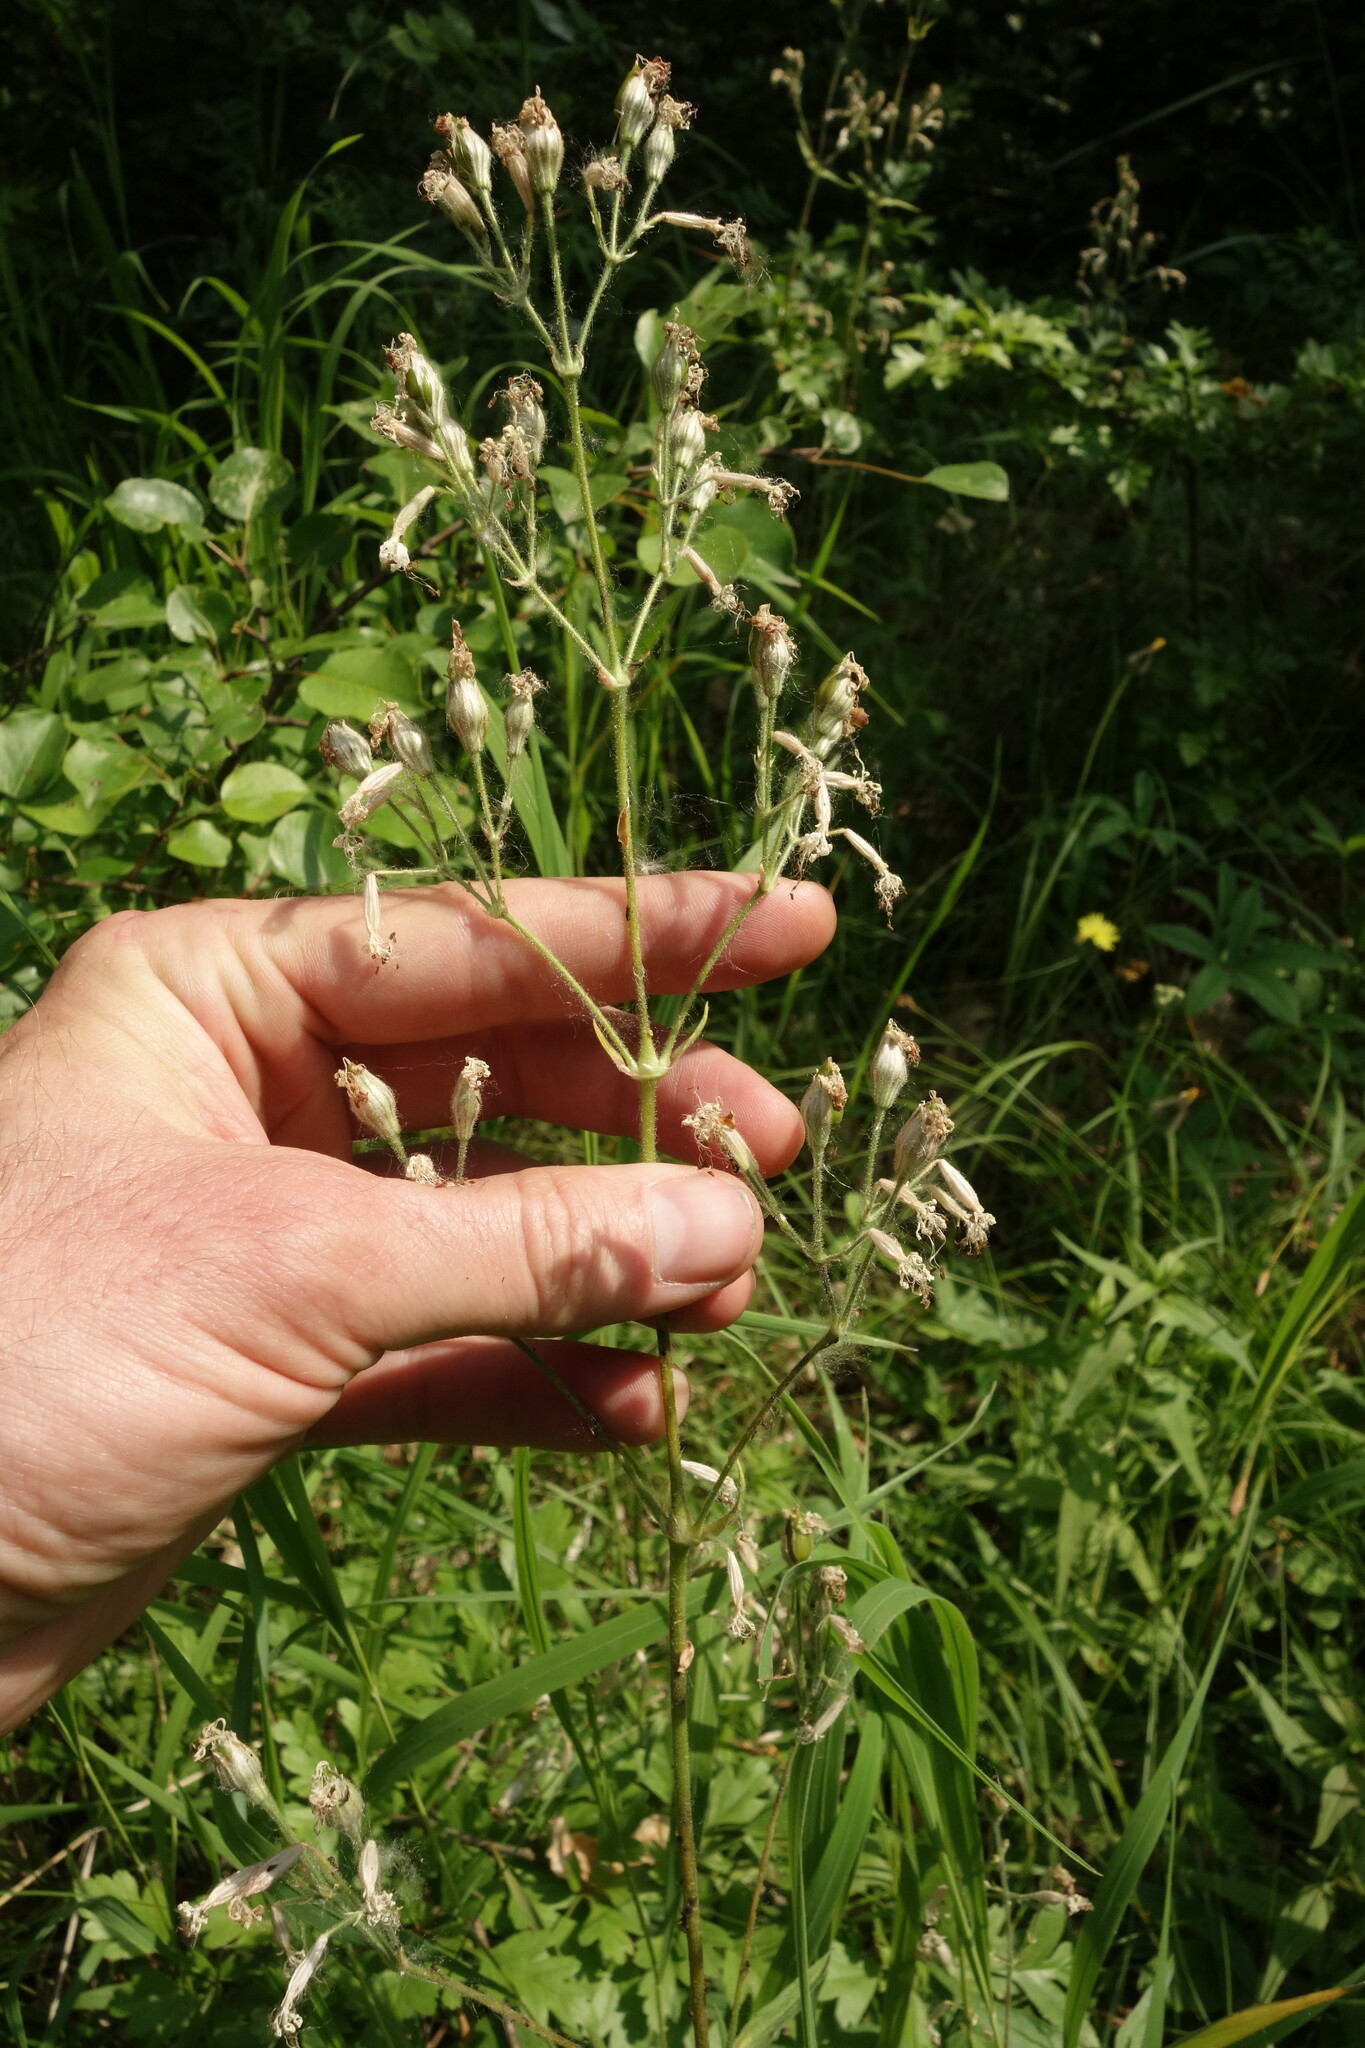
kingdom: Plantae
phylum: Tracheophyta
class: Magnoliopsida
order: Caryophyllales
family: Caryophyllaceae
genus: Silene
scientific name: Silene nutans
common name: Nottingham catchfly
